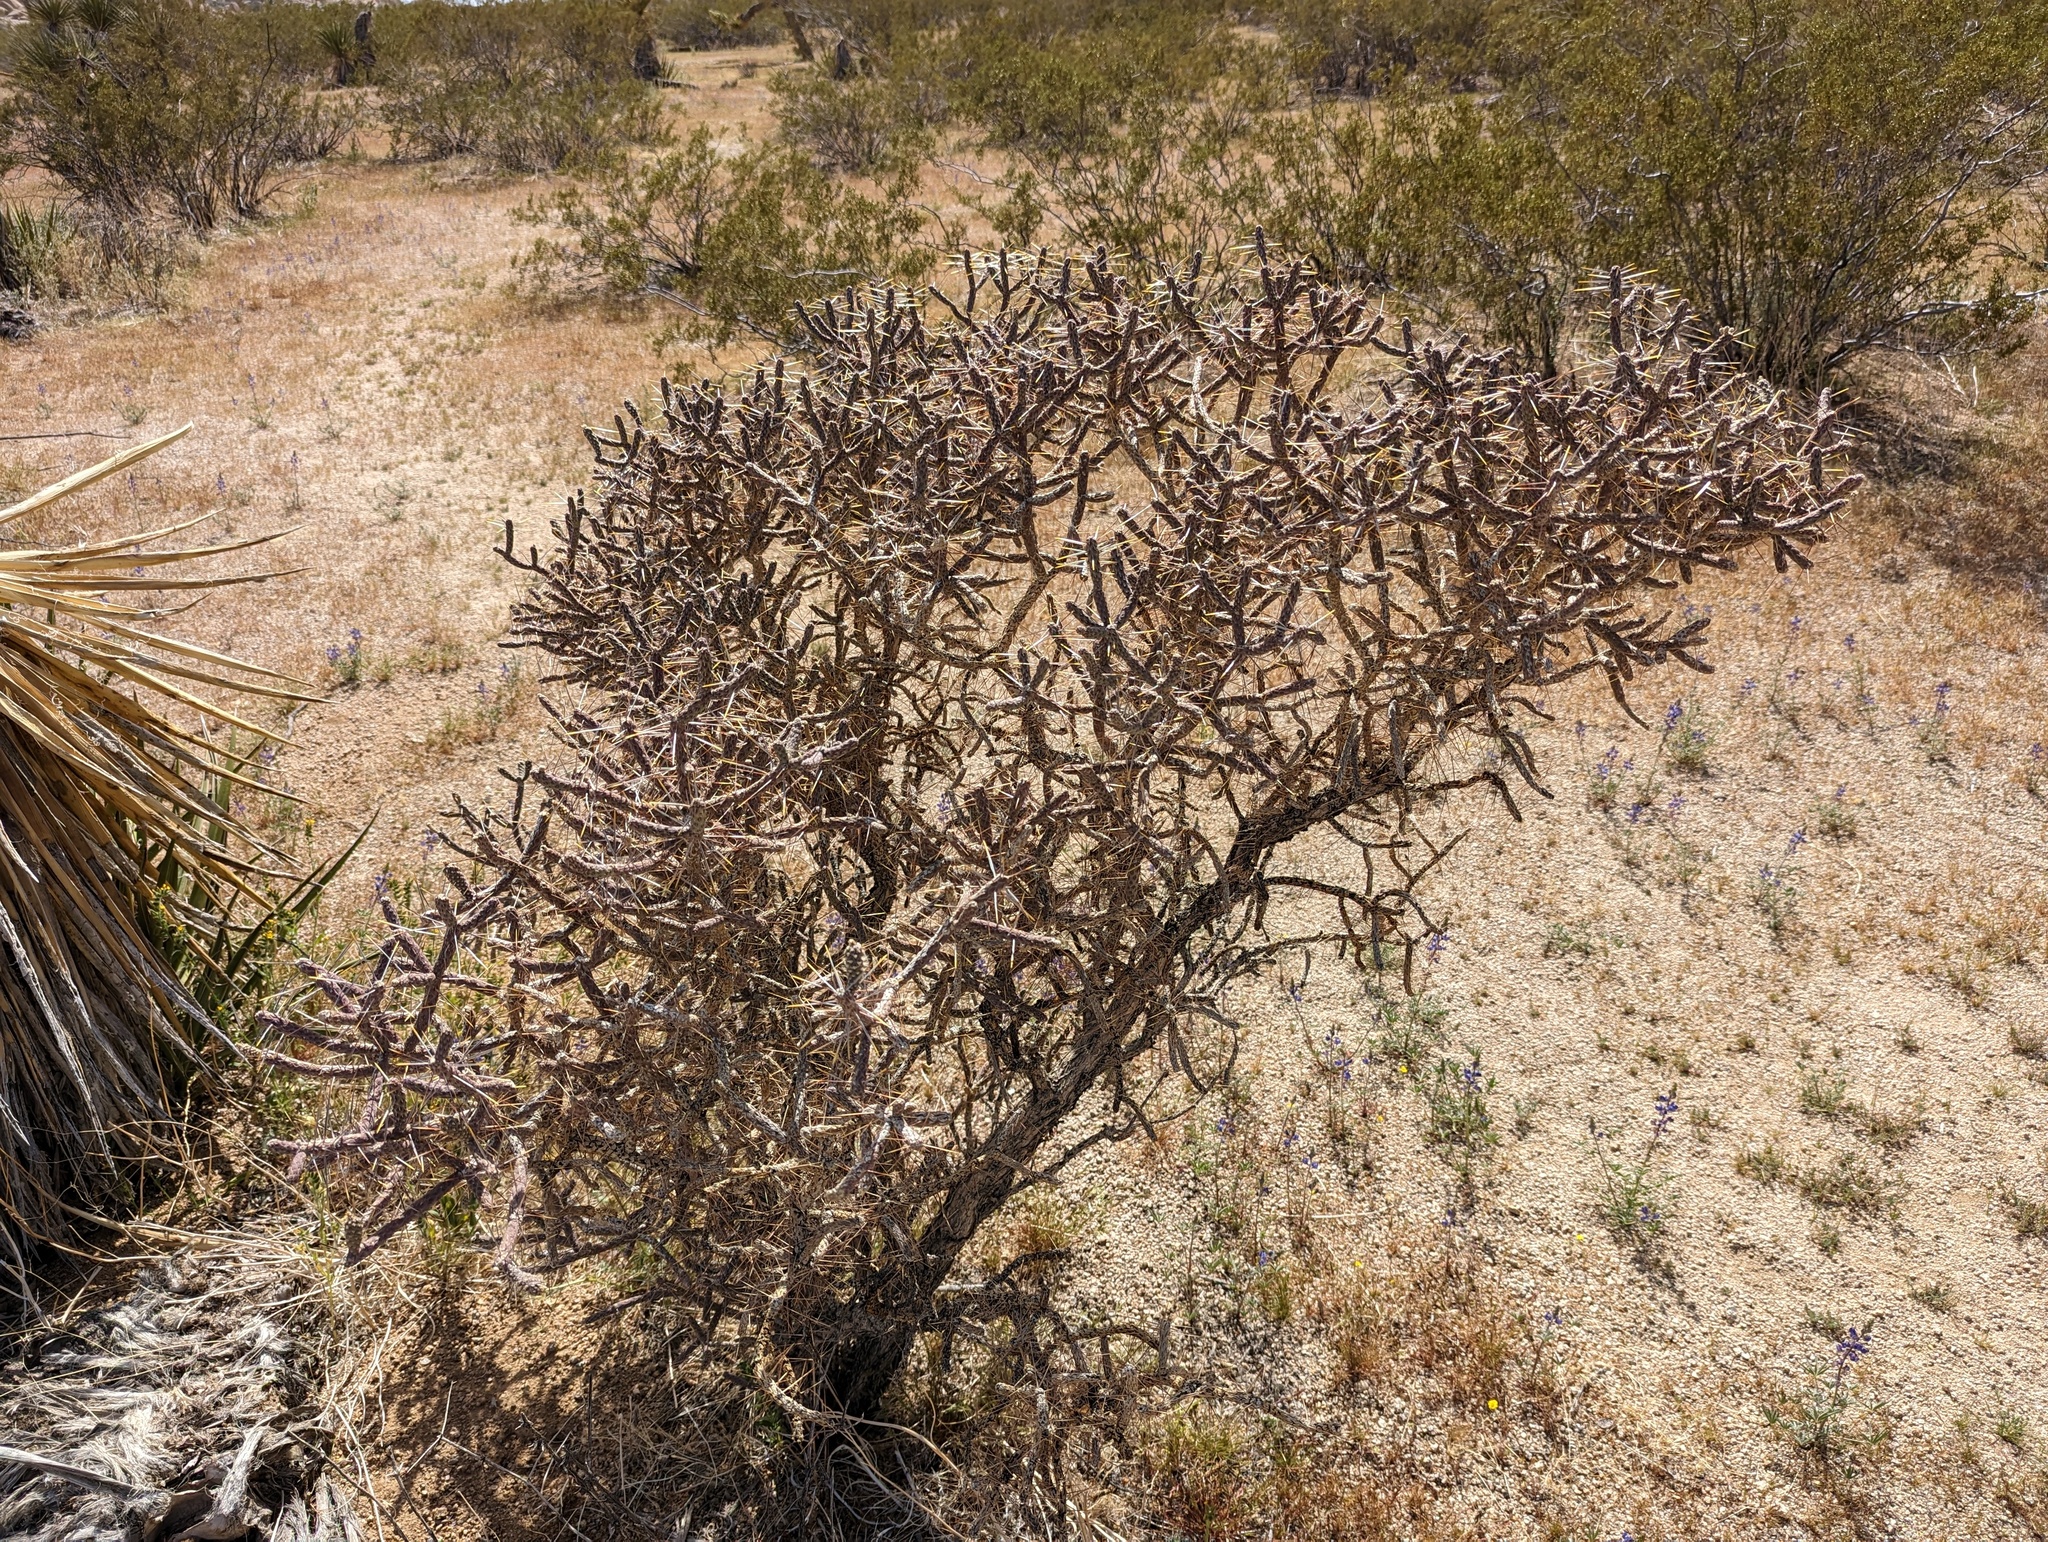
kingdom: Plantae
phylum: Tracheophyta
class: Magnoliopsida
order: Caryophyllales
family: Cactaceae
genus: Cylindropuntia
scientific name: Cylindropuntia ramosissima
